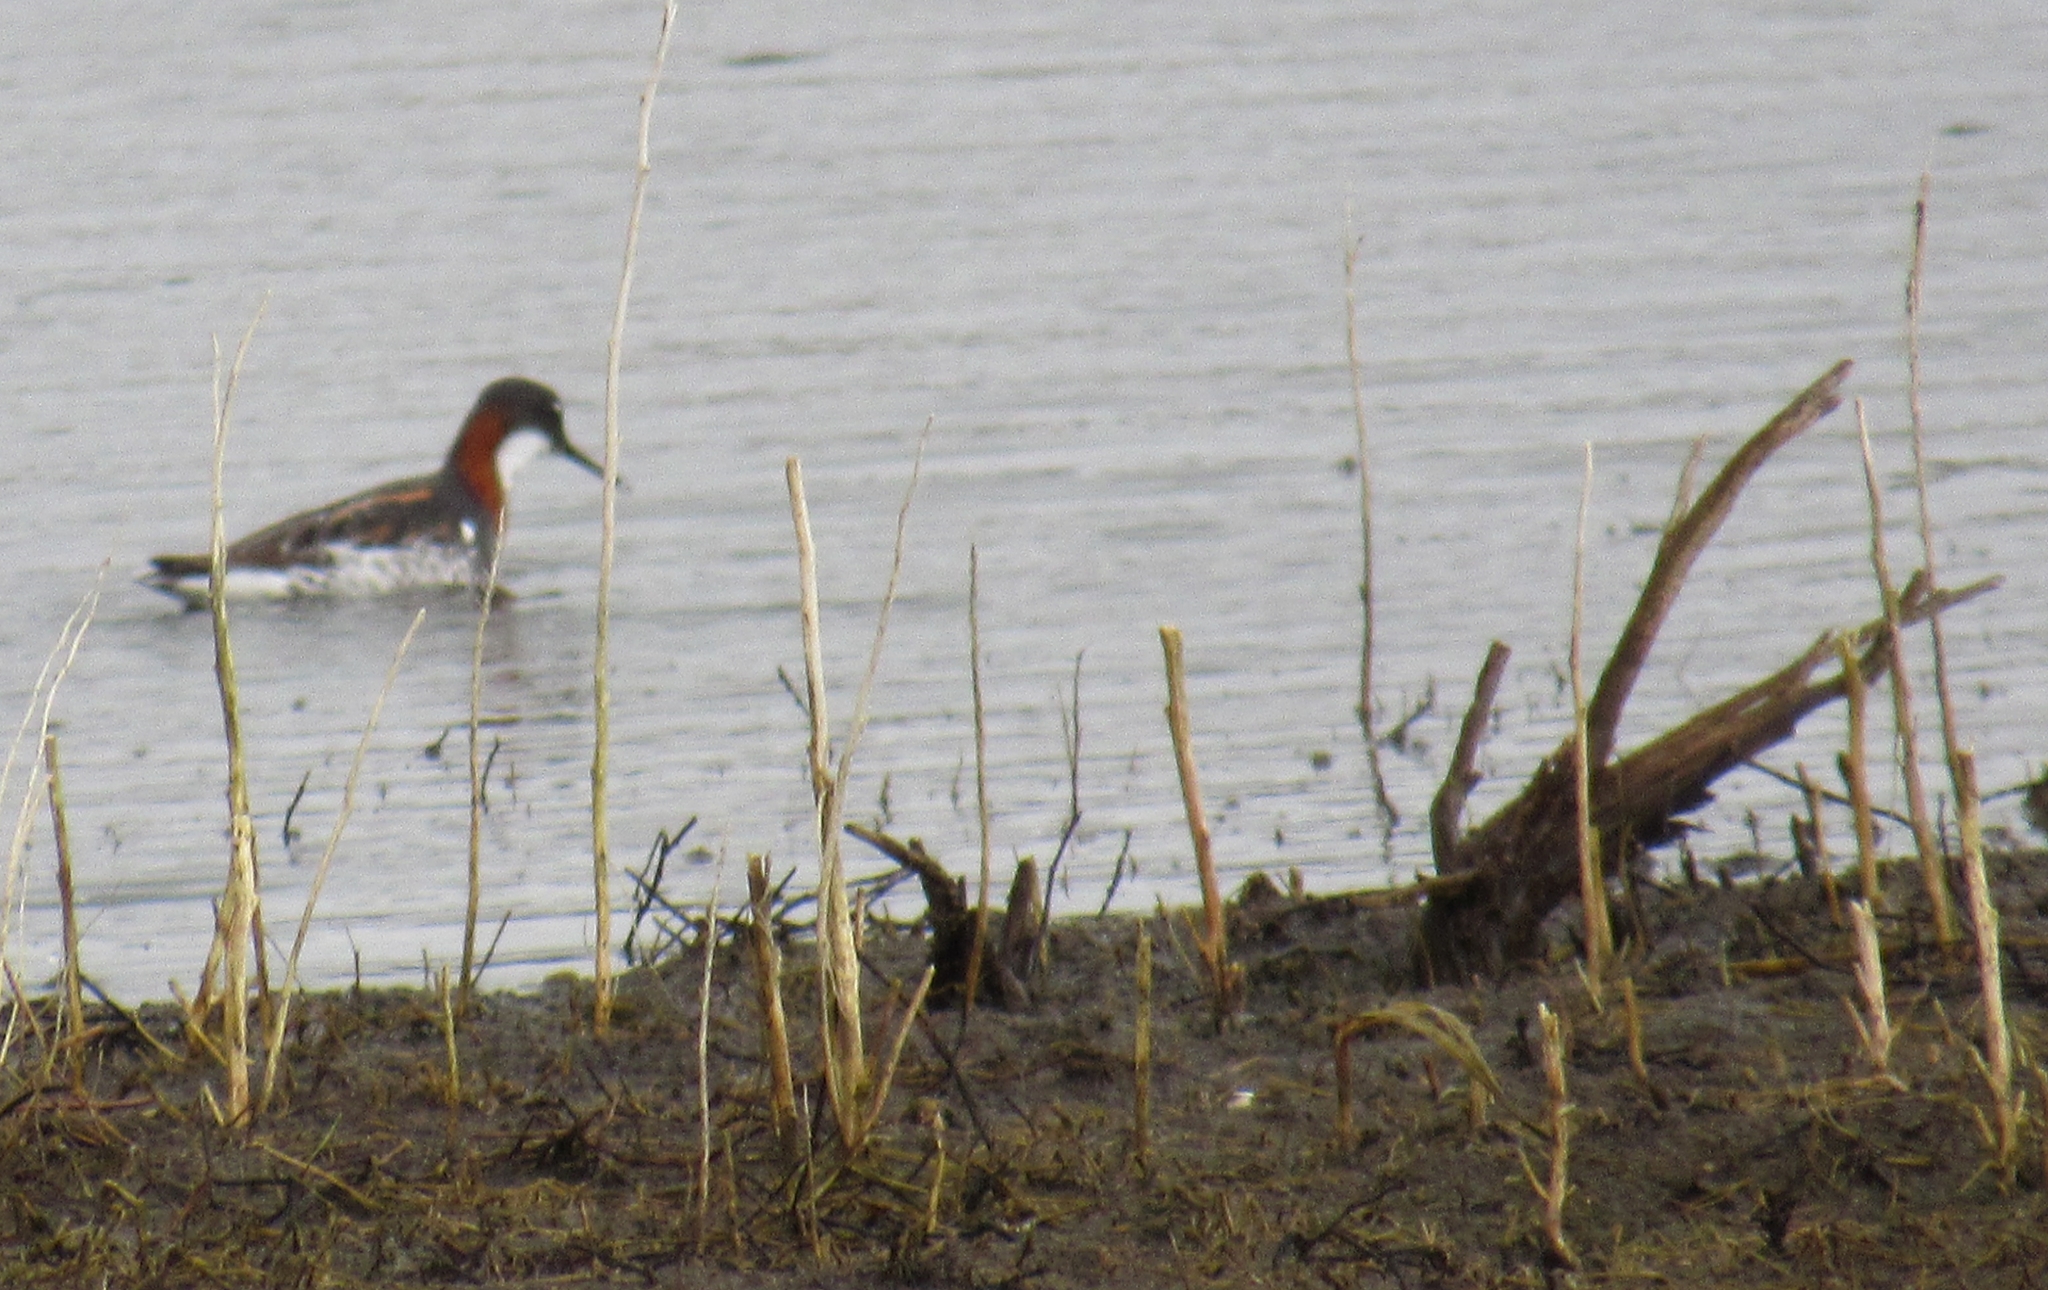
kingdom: Animalia
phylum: Chordata
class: Aves
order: Charadriiformes
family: Scolopacidae
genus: Phalaropus
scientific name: Phalaropus lobatus
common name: Red-necked phalarope
